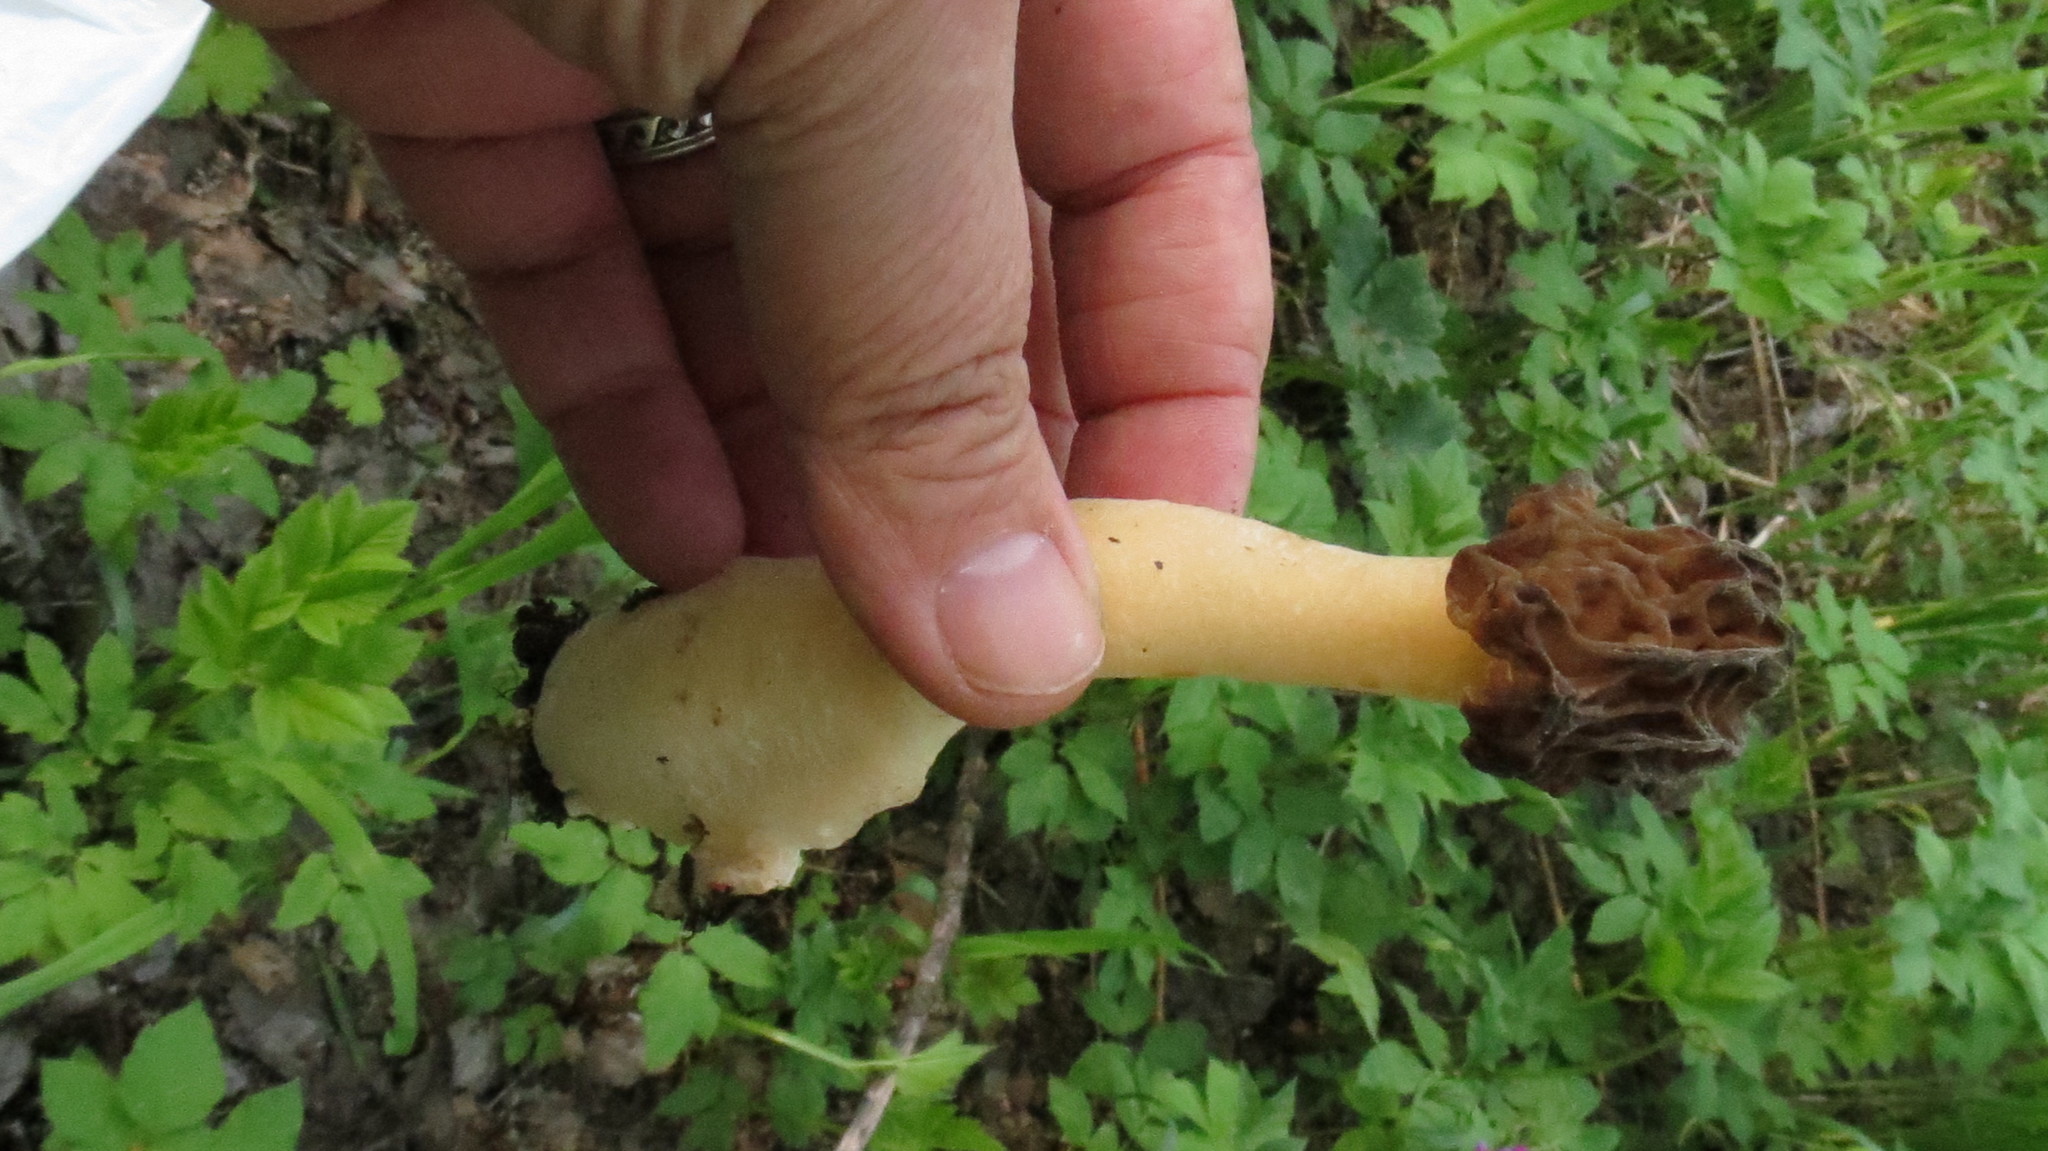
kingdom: Fungi
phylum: Ascomycota
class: Pezizomycetes
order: Pezizales
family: Morchellaceae
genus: Verpa
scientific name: Verpa bohemica
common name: Wrinkled thimble morel
